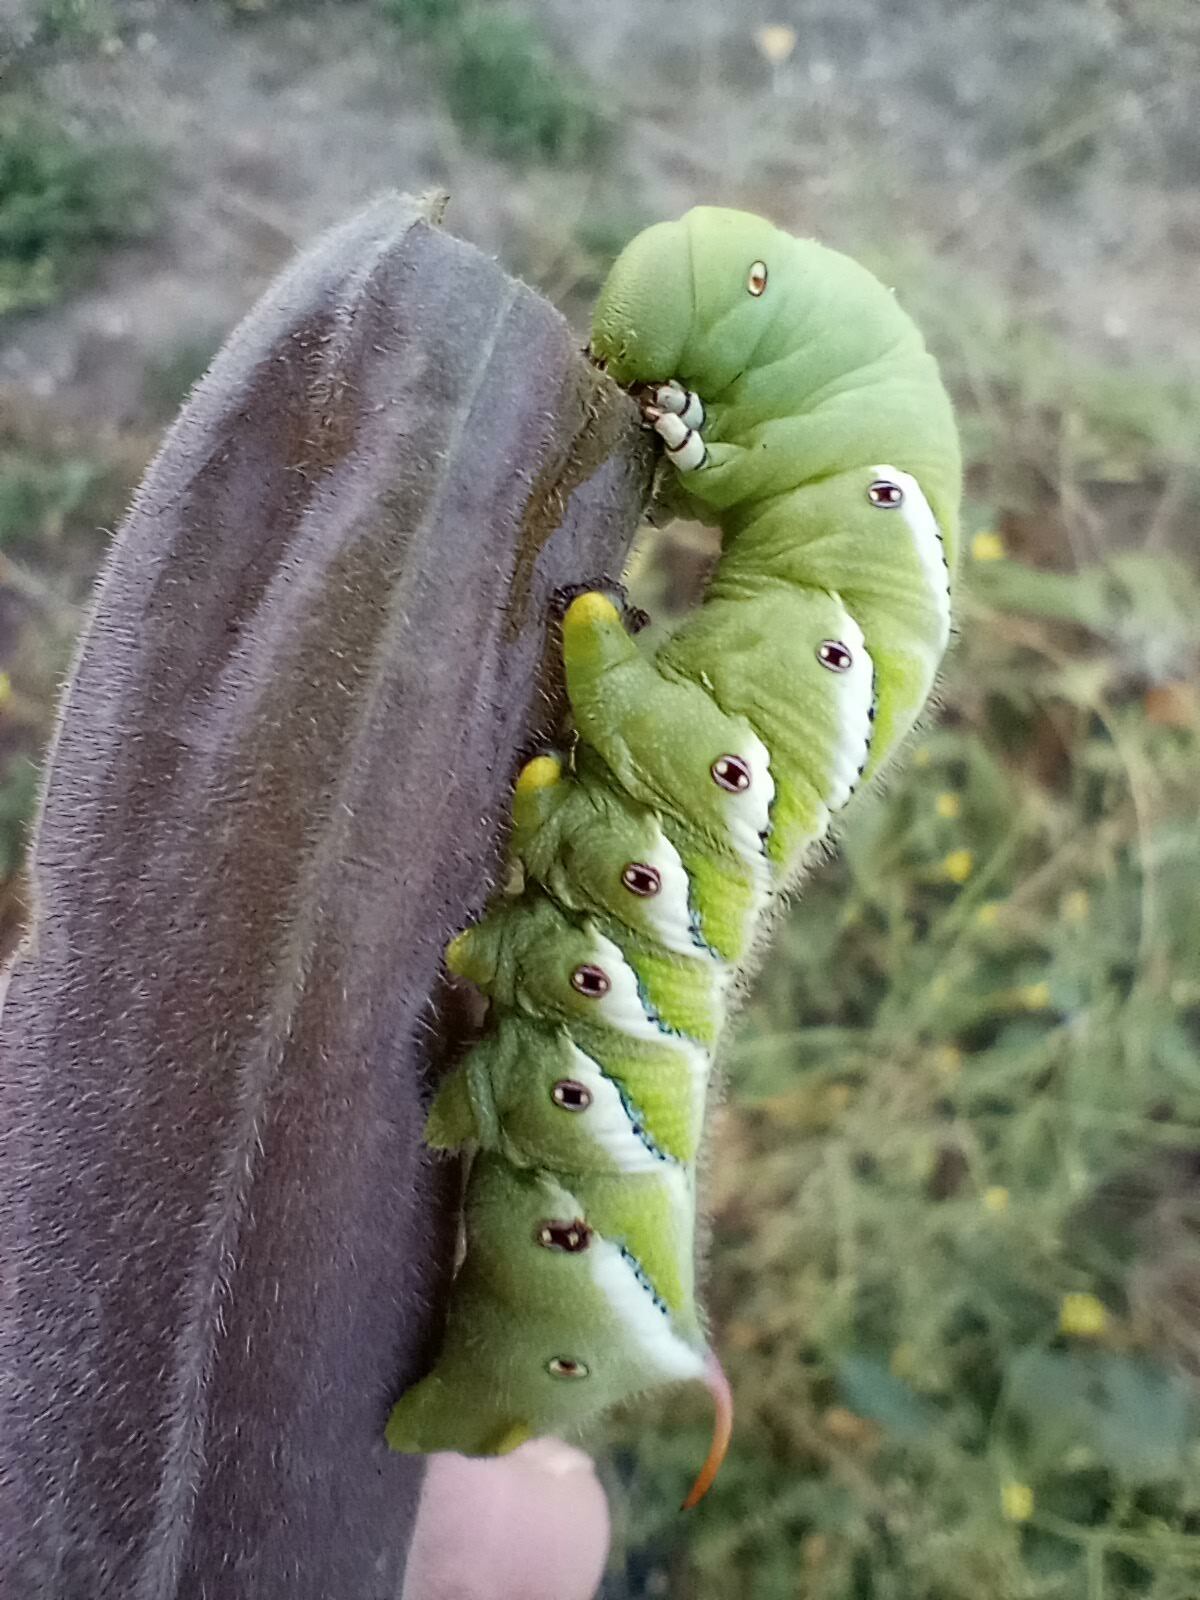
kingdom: Animalia
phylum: Arthropoda
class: Insecta
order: Lepidoptera
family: Sphingidae
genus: Manduca
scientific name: Manduca sexta
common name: Carolina sphinx
